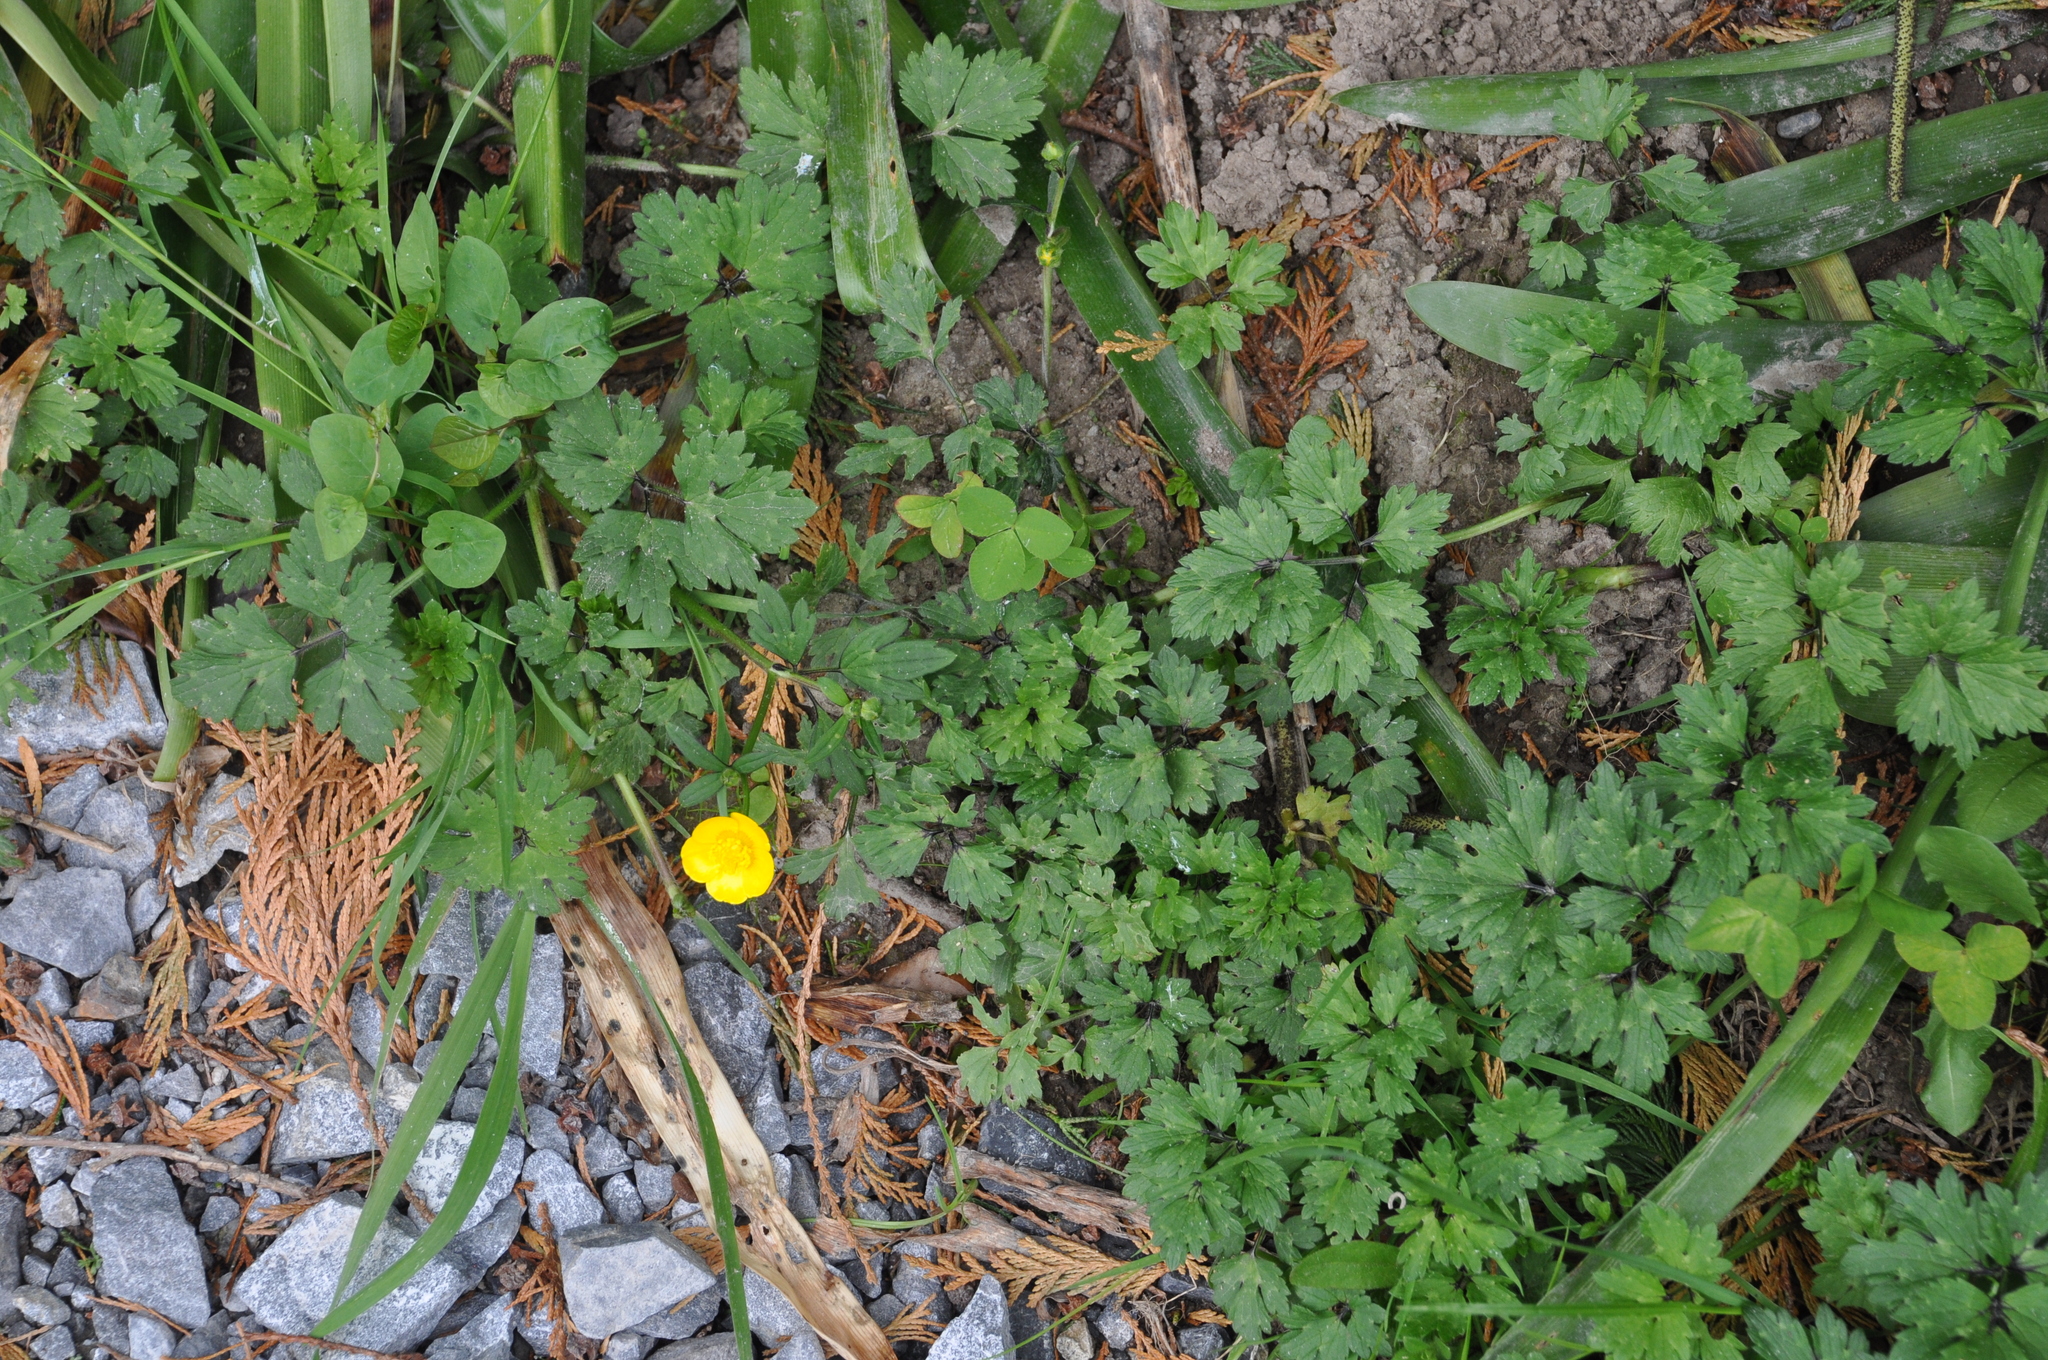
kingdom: Plantae
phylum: Tracheophyta
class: Magnoliopsida
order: Ranunculales
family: Ranunculaceae
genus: Ranunculus
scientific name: Ranunculus repens
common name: Creeping buttercup
